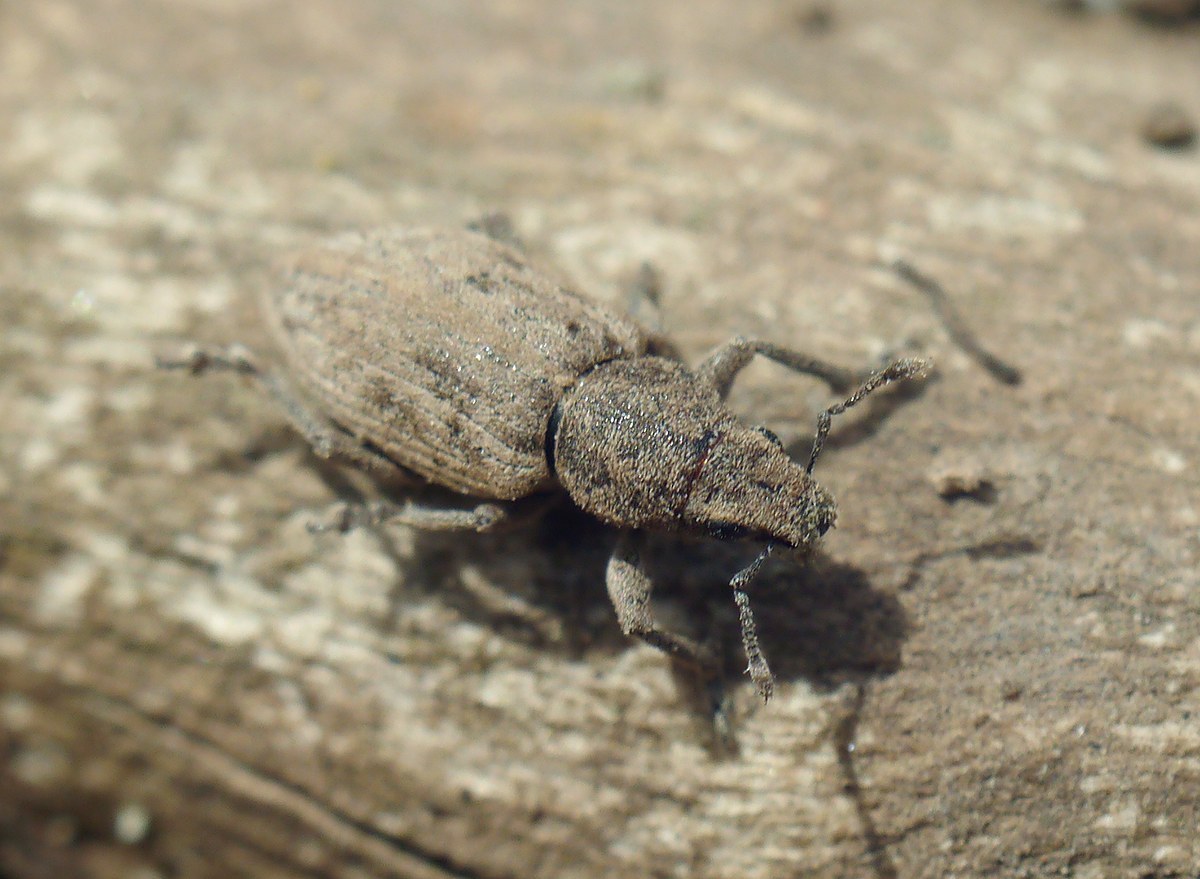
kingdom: Animalia
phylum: Arthropoda
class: Insecta
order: Coleoptera
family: Curculionidae
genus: Tanymecus
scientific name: Tanymecus dilaticollis
